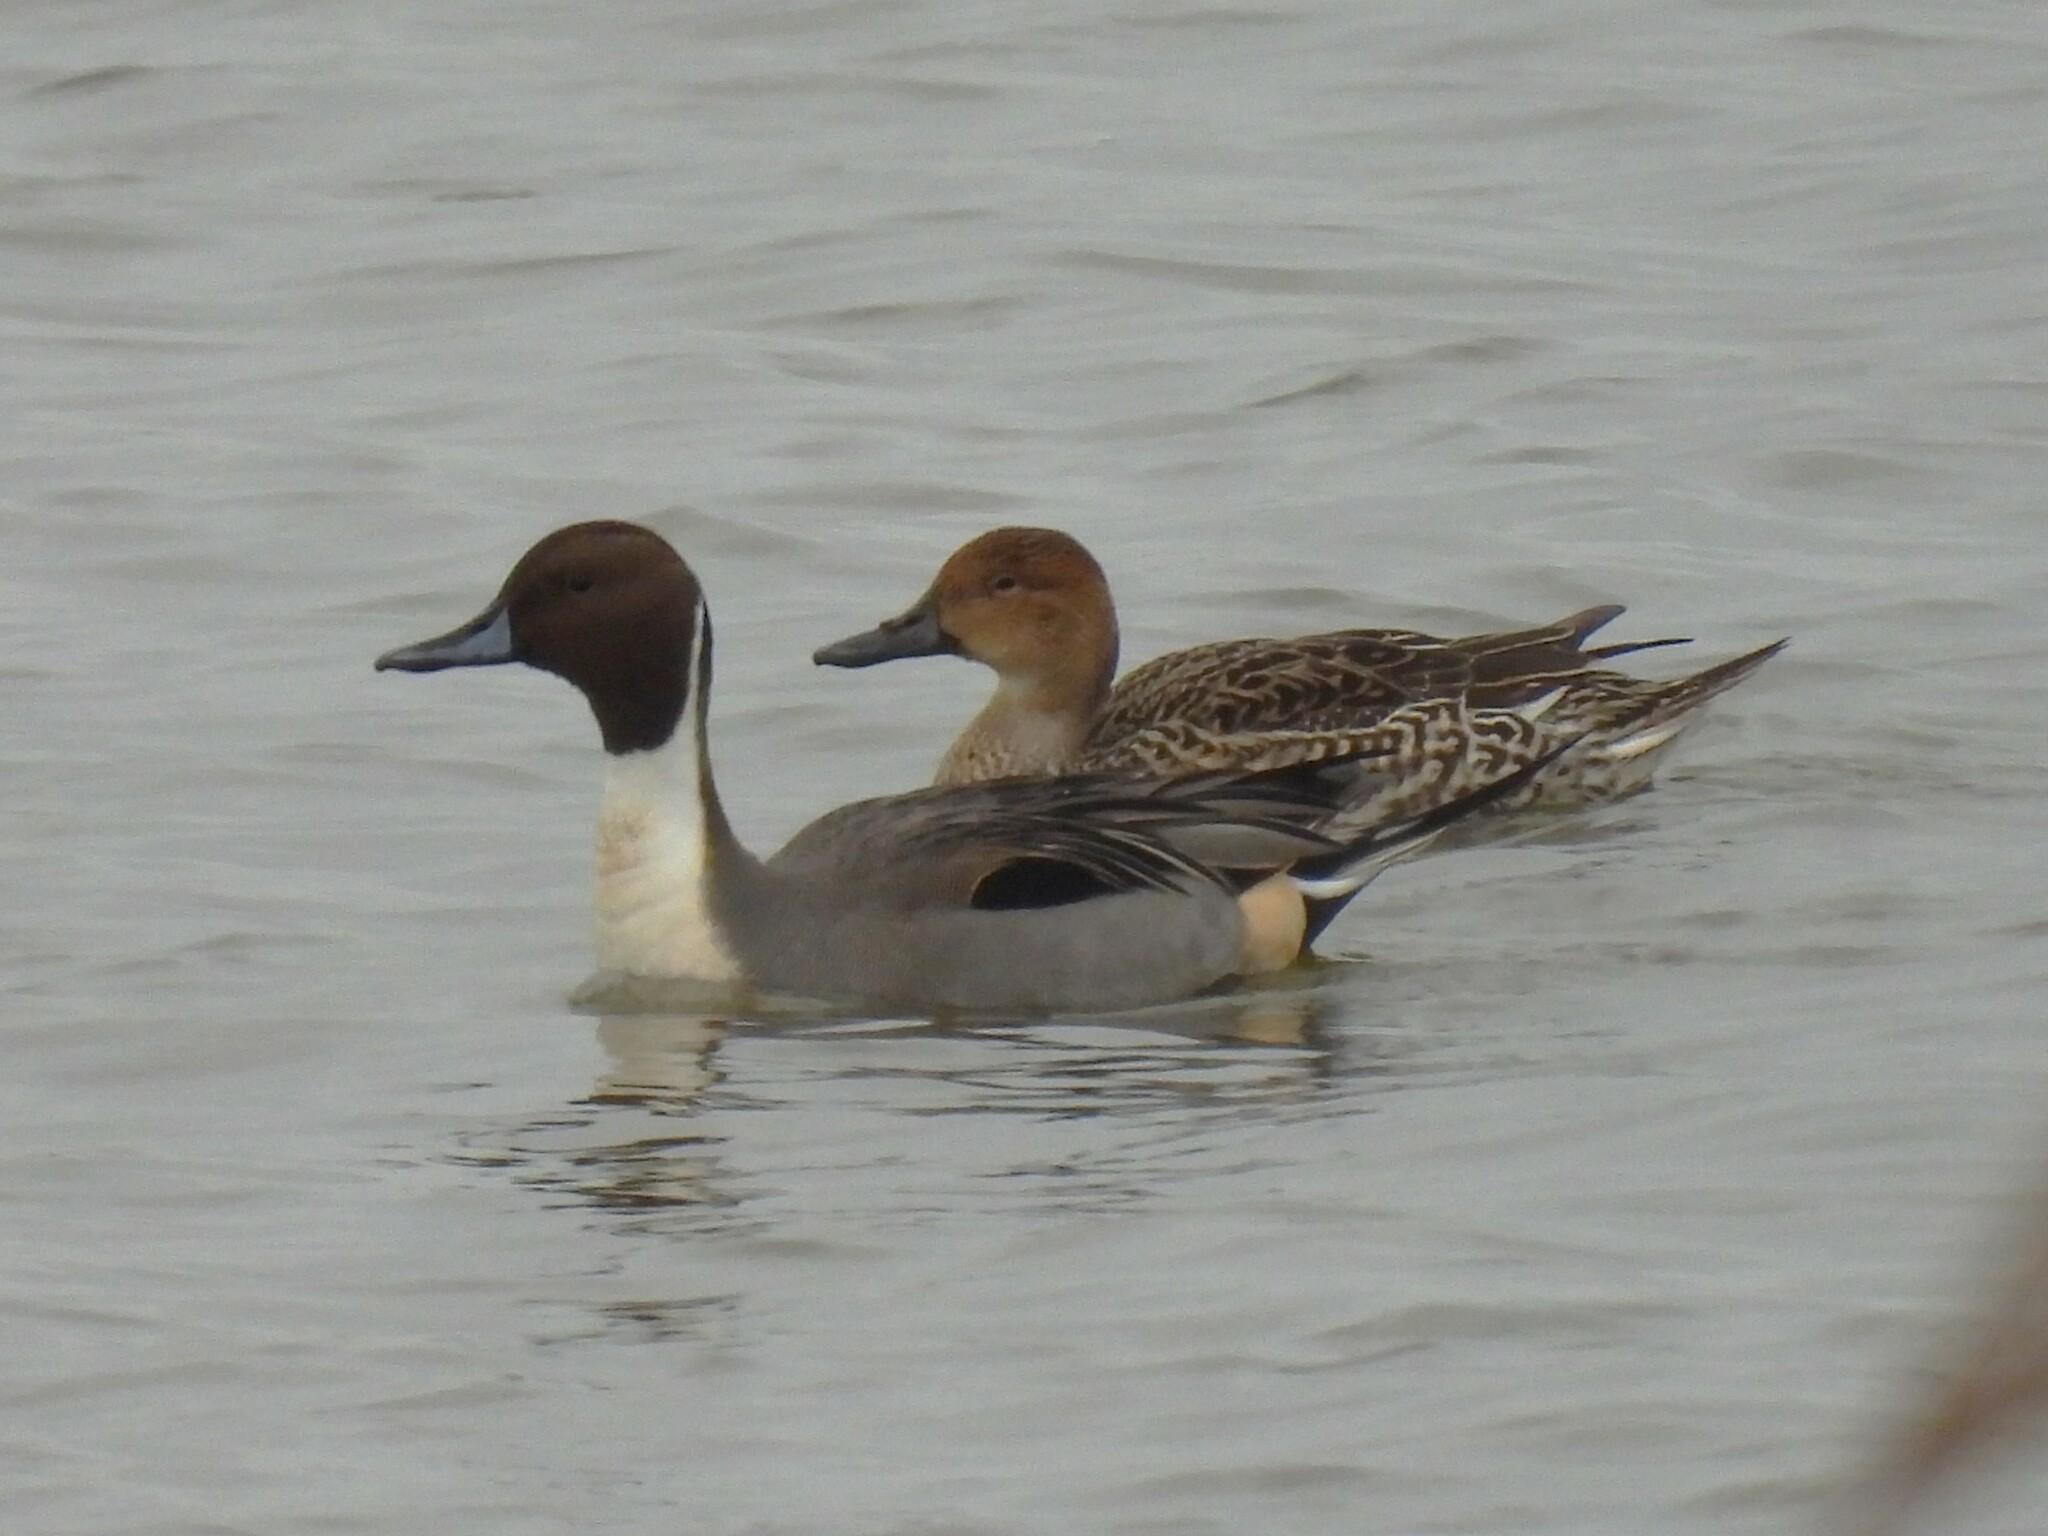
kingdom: Animalia
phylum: Chordata
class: Aves
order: Anseriformes
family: Anatidae
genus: Anas
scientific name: Anas acuta
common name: Northern pintail
